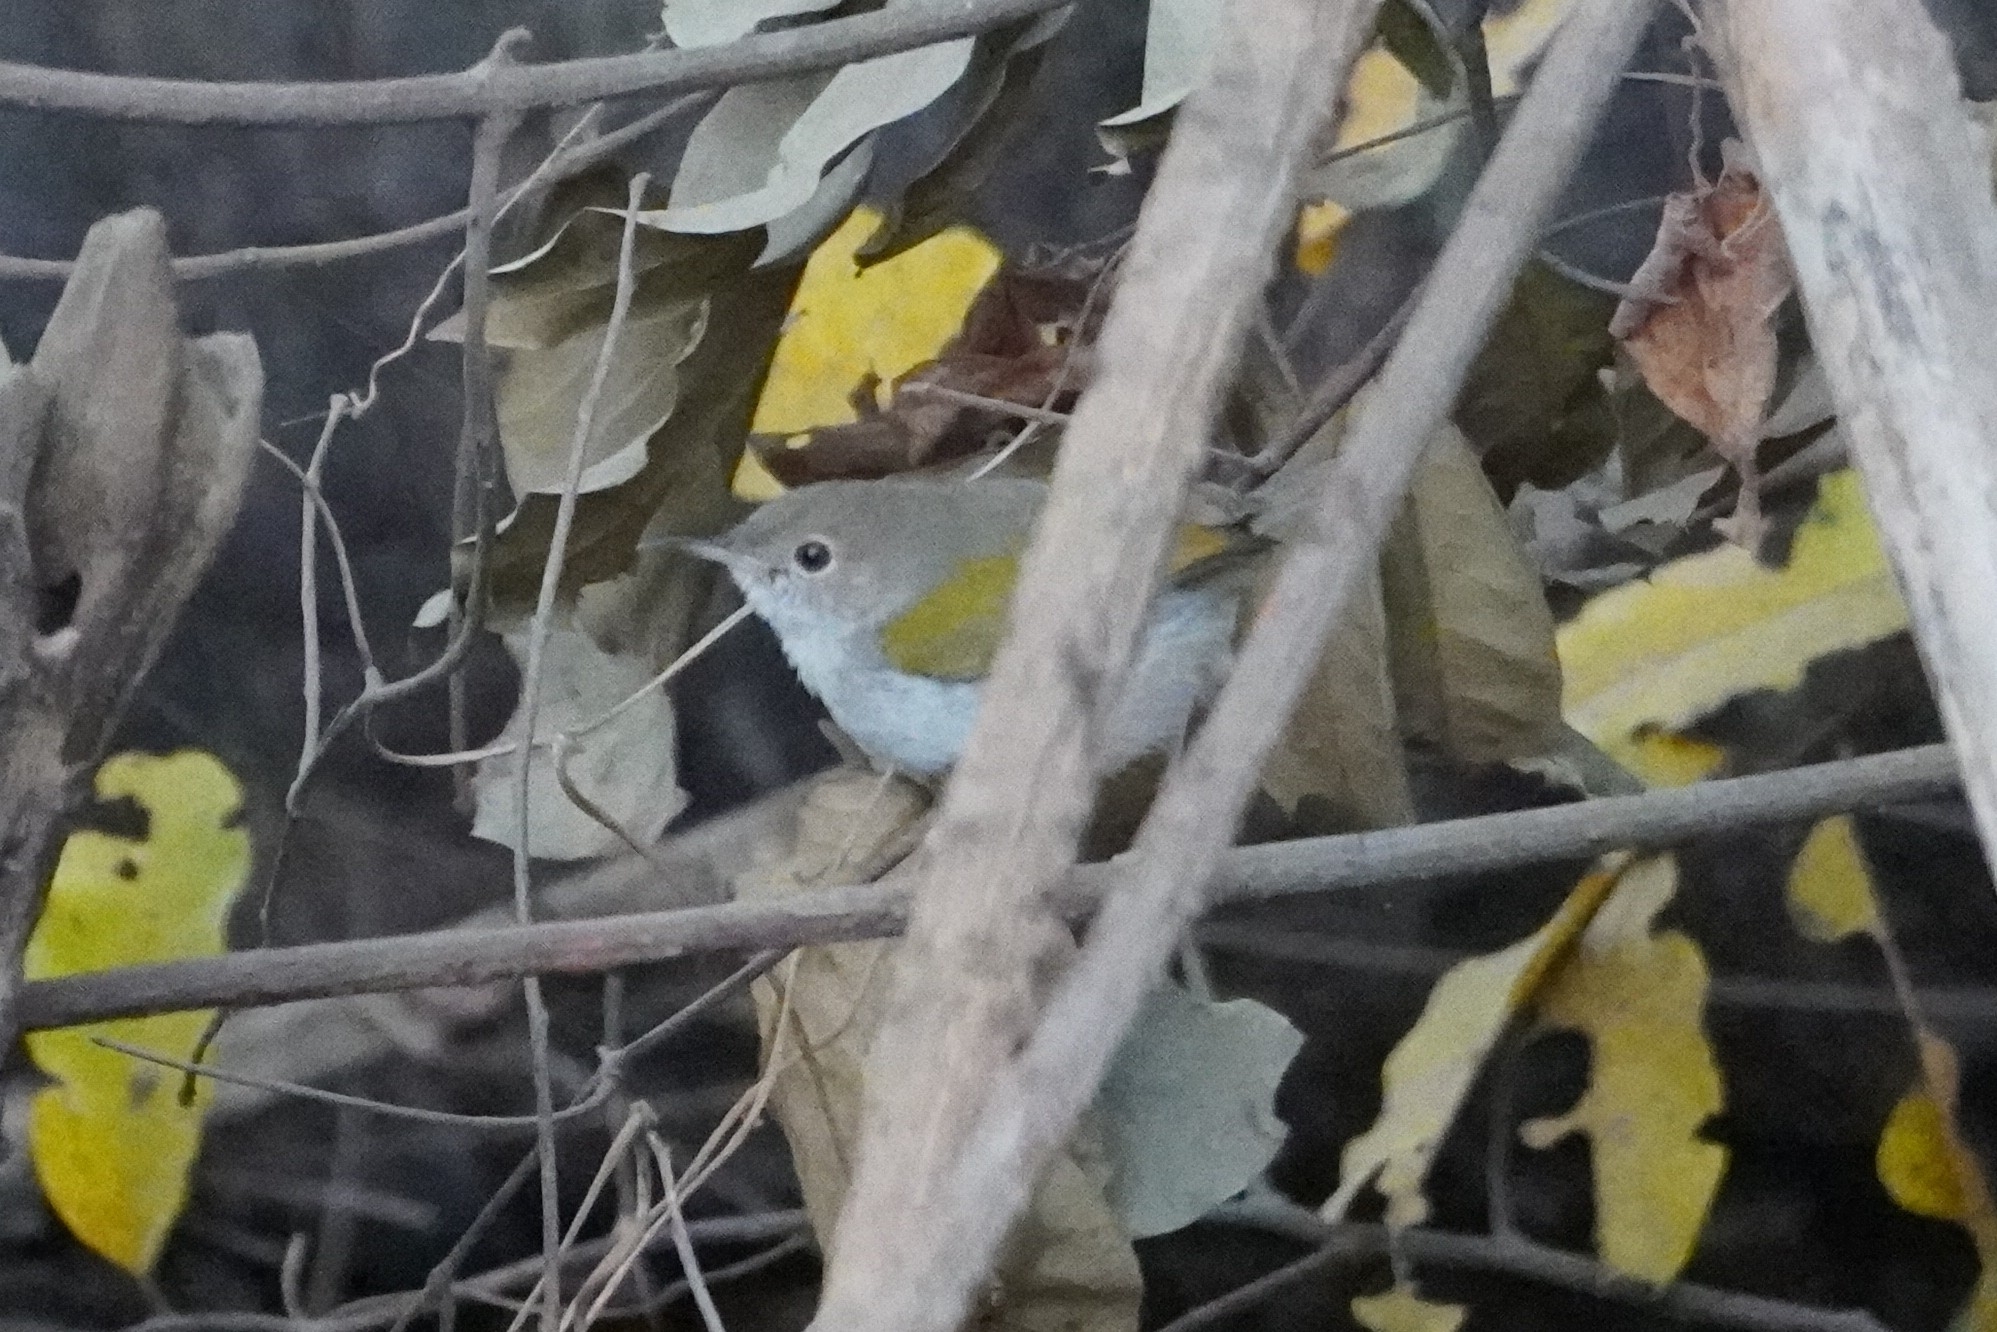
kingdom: Animalia
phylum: Chordata
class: Aves
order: Passeriformes
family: Cisticolidae
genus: Camaroptera
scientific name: Camaroptera brachyura
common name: Green-backed camaroptera
